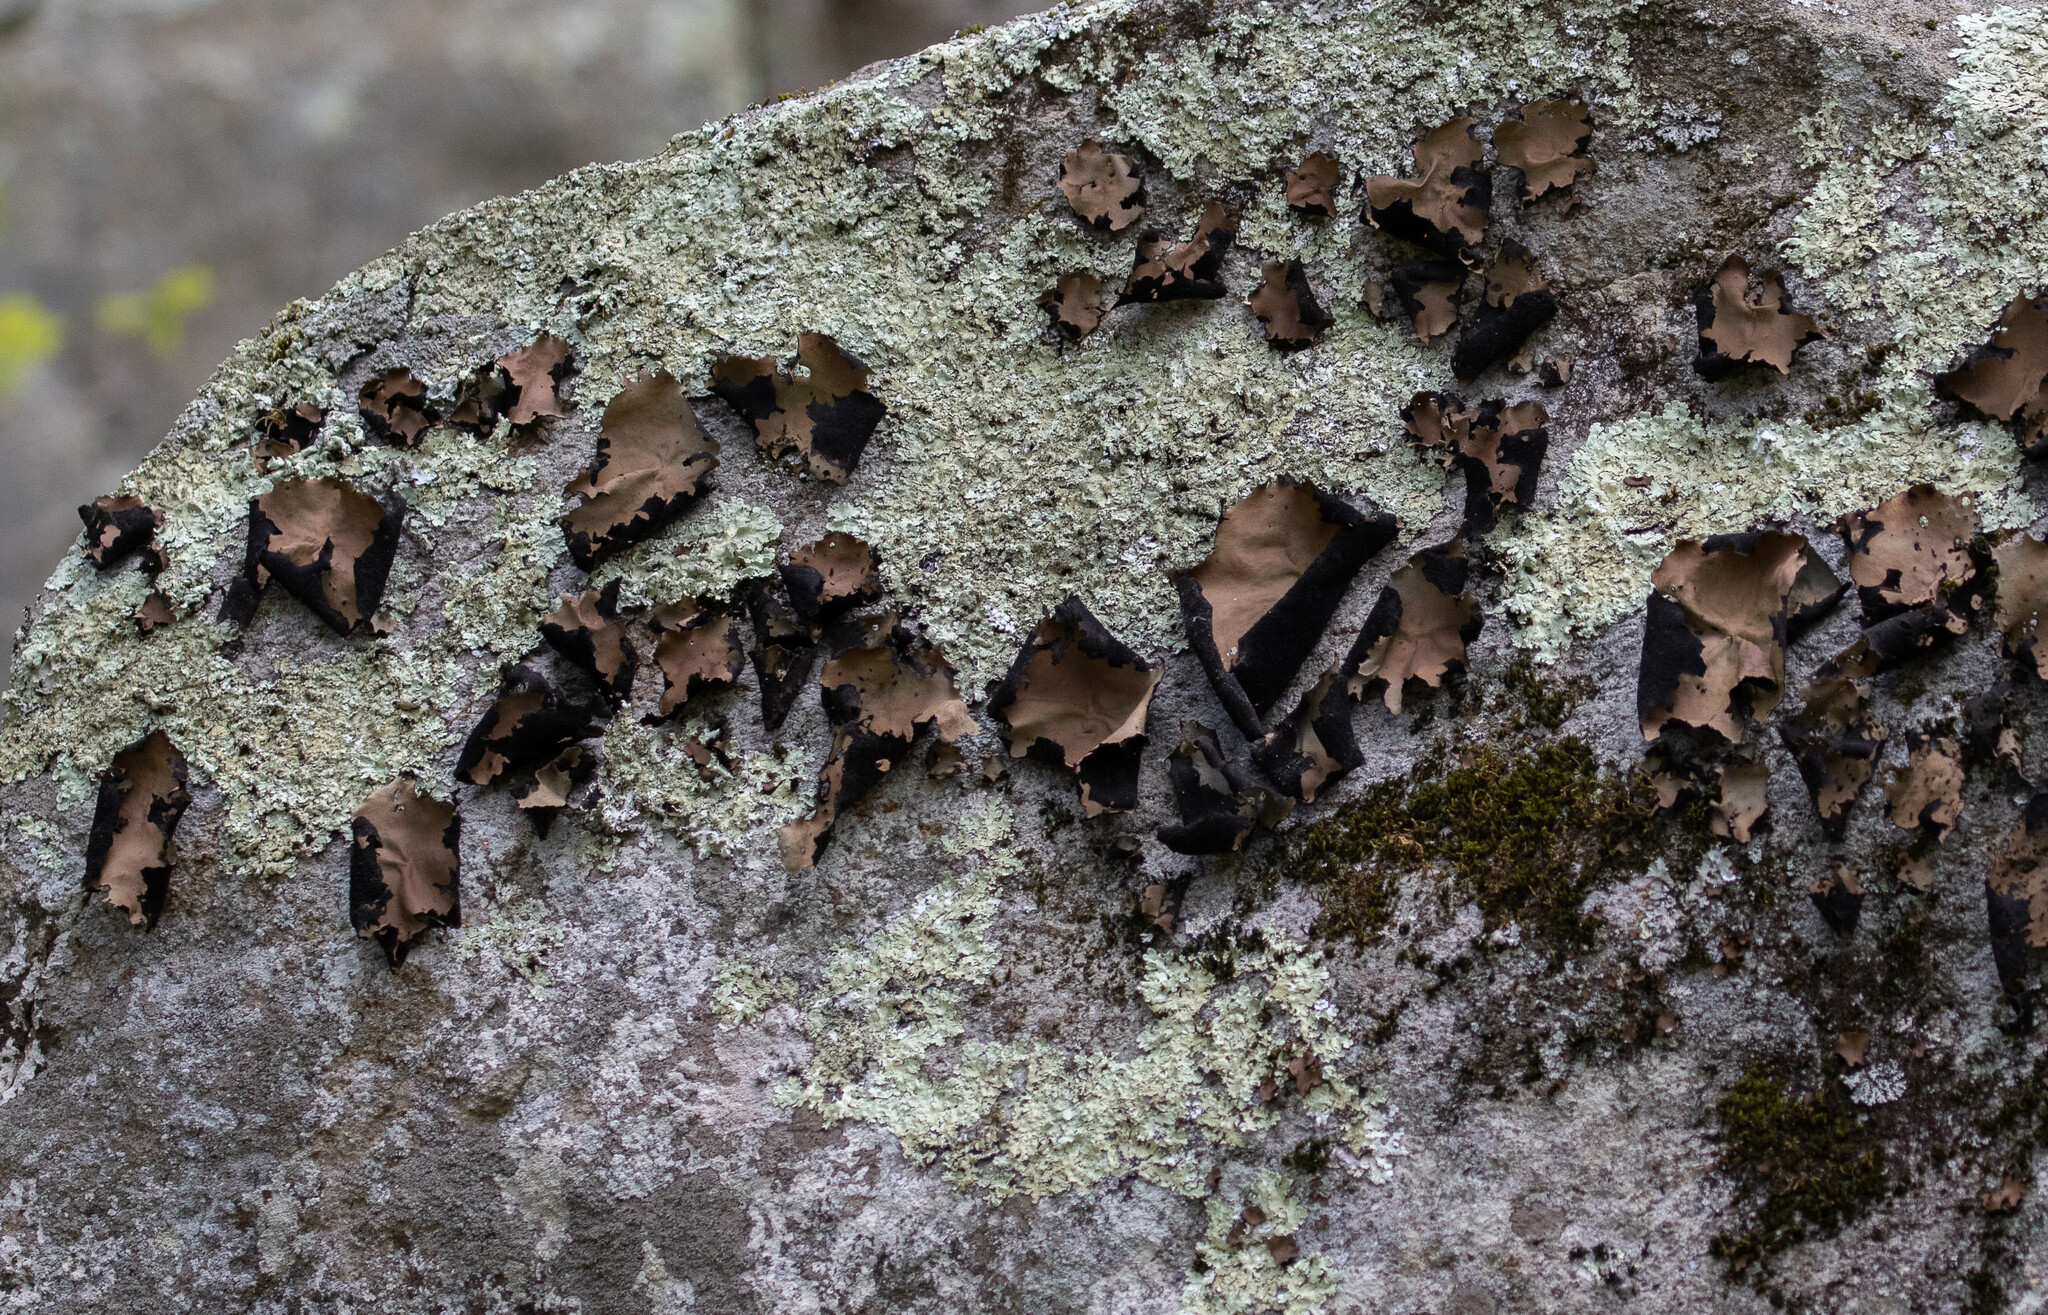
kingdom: Fungi
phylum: Ascomycota
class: Lecanoromycetes
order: Umbilicariales
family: Umbilicariaceae
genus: Umbilicaria
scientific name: Umbilicaria mammulata
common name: Smooth rock tripe
